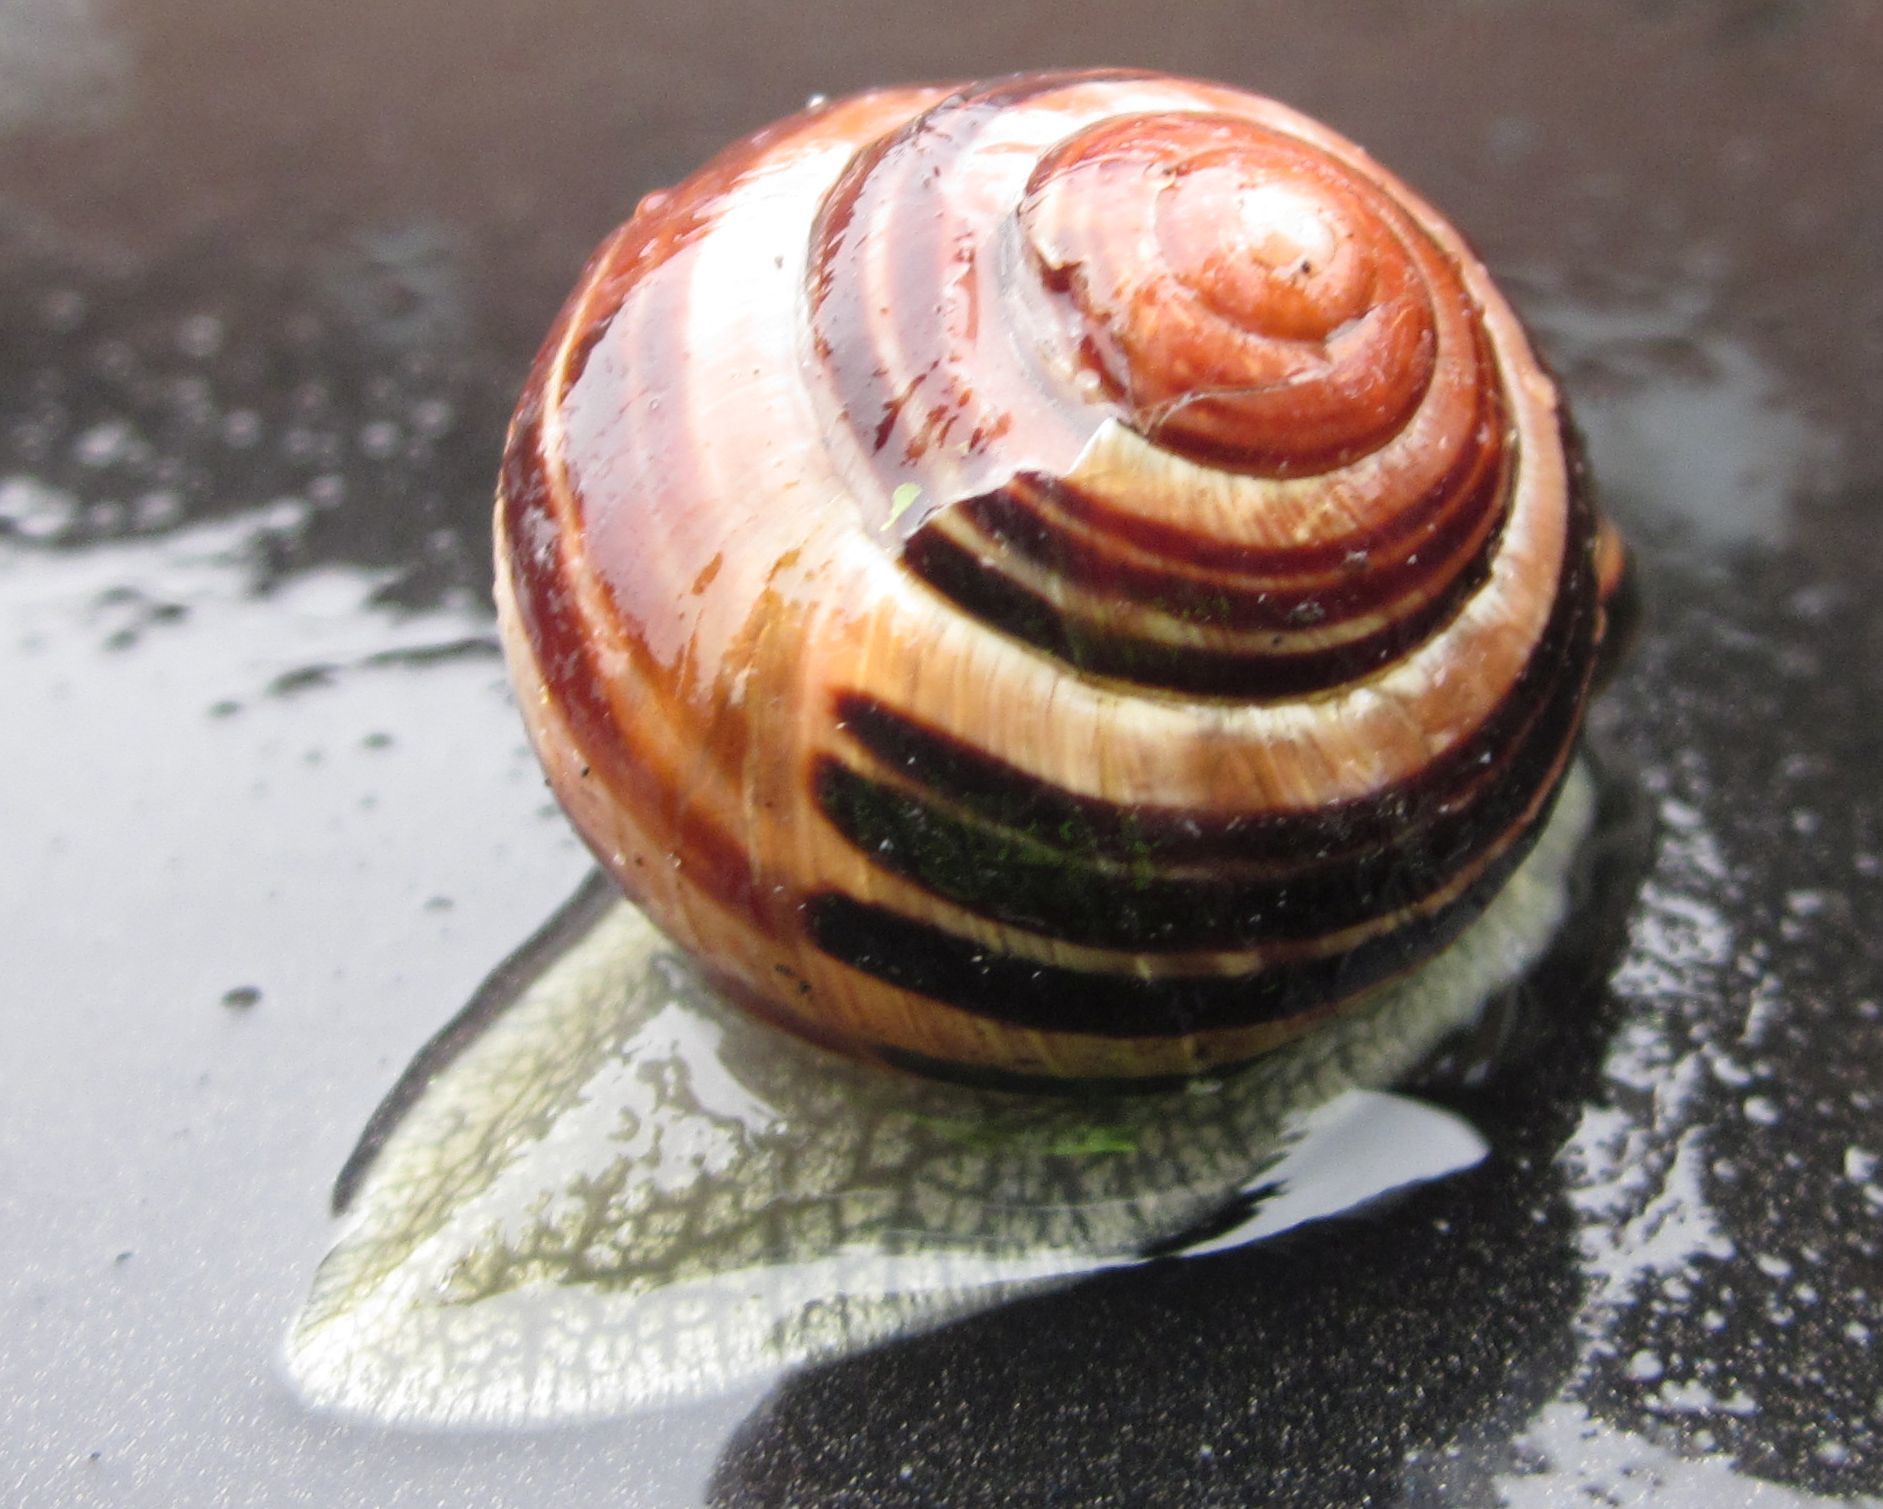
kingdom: Animalia
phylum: Mollusca
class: Gastropoda
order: Stylommatophora
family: Helicidae
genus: Cepaea
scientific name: Cepaea nemoralis
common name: Grovesnail
